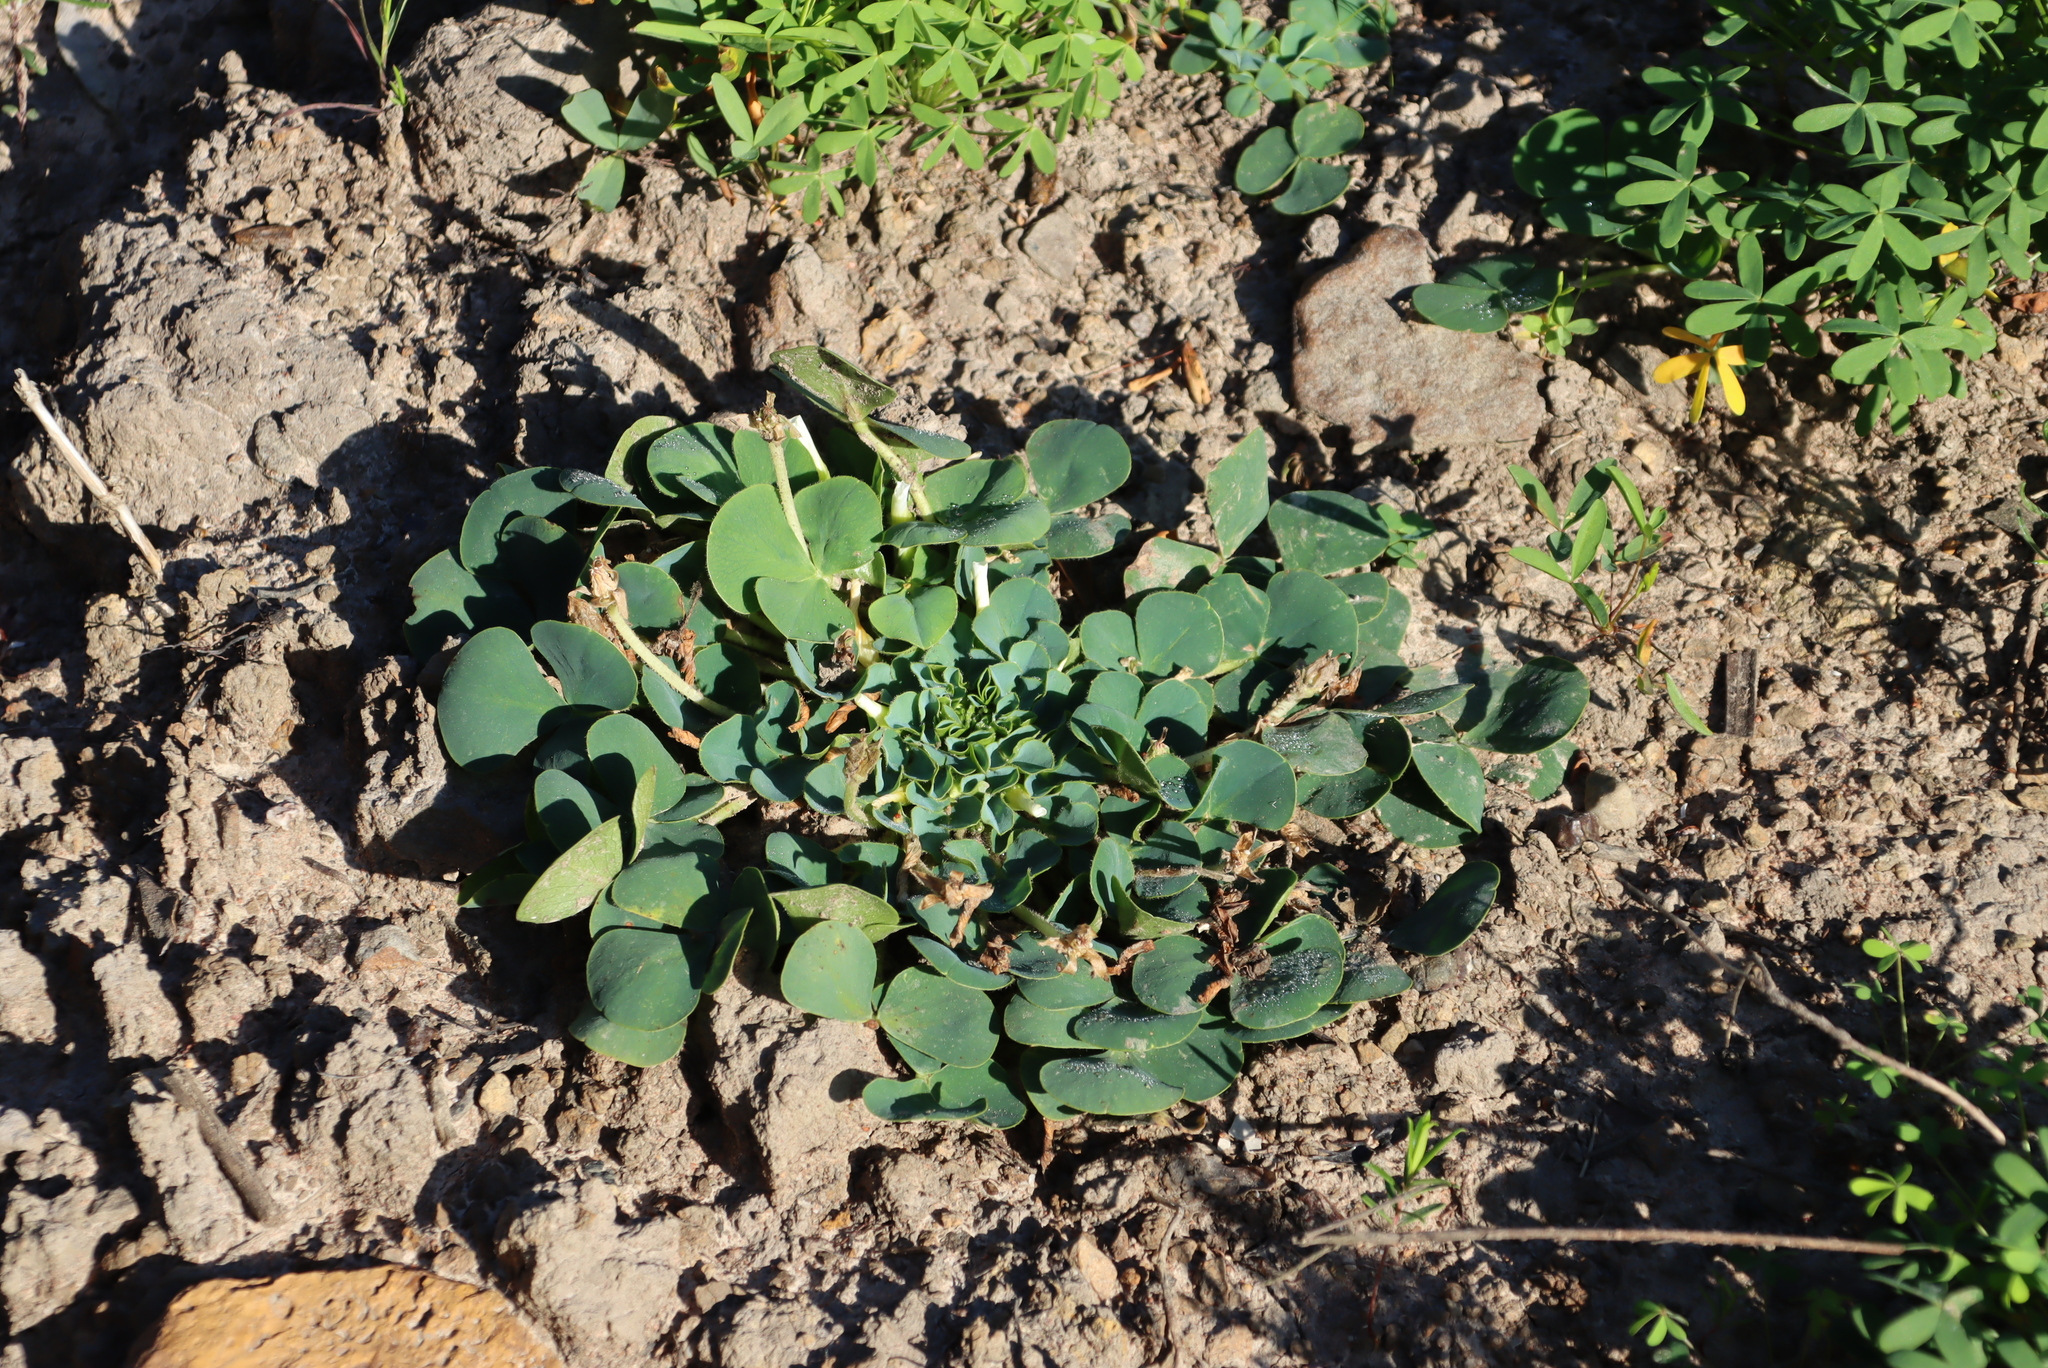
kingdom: Plantae
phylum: Tracheophyta
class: Magnoliopsida
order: Oxalidales
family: Oxalidaceae
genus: Oxalis
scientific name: Oxalis purpurea
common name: Purple woodsorrel
